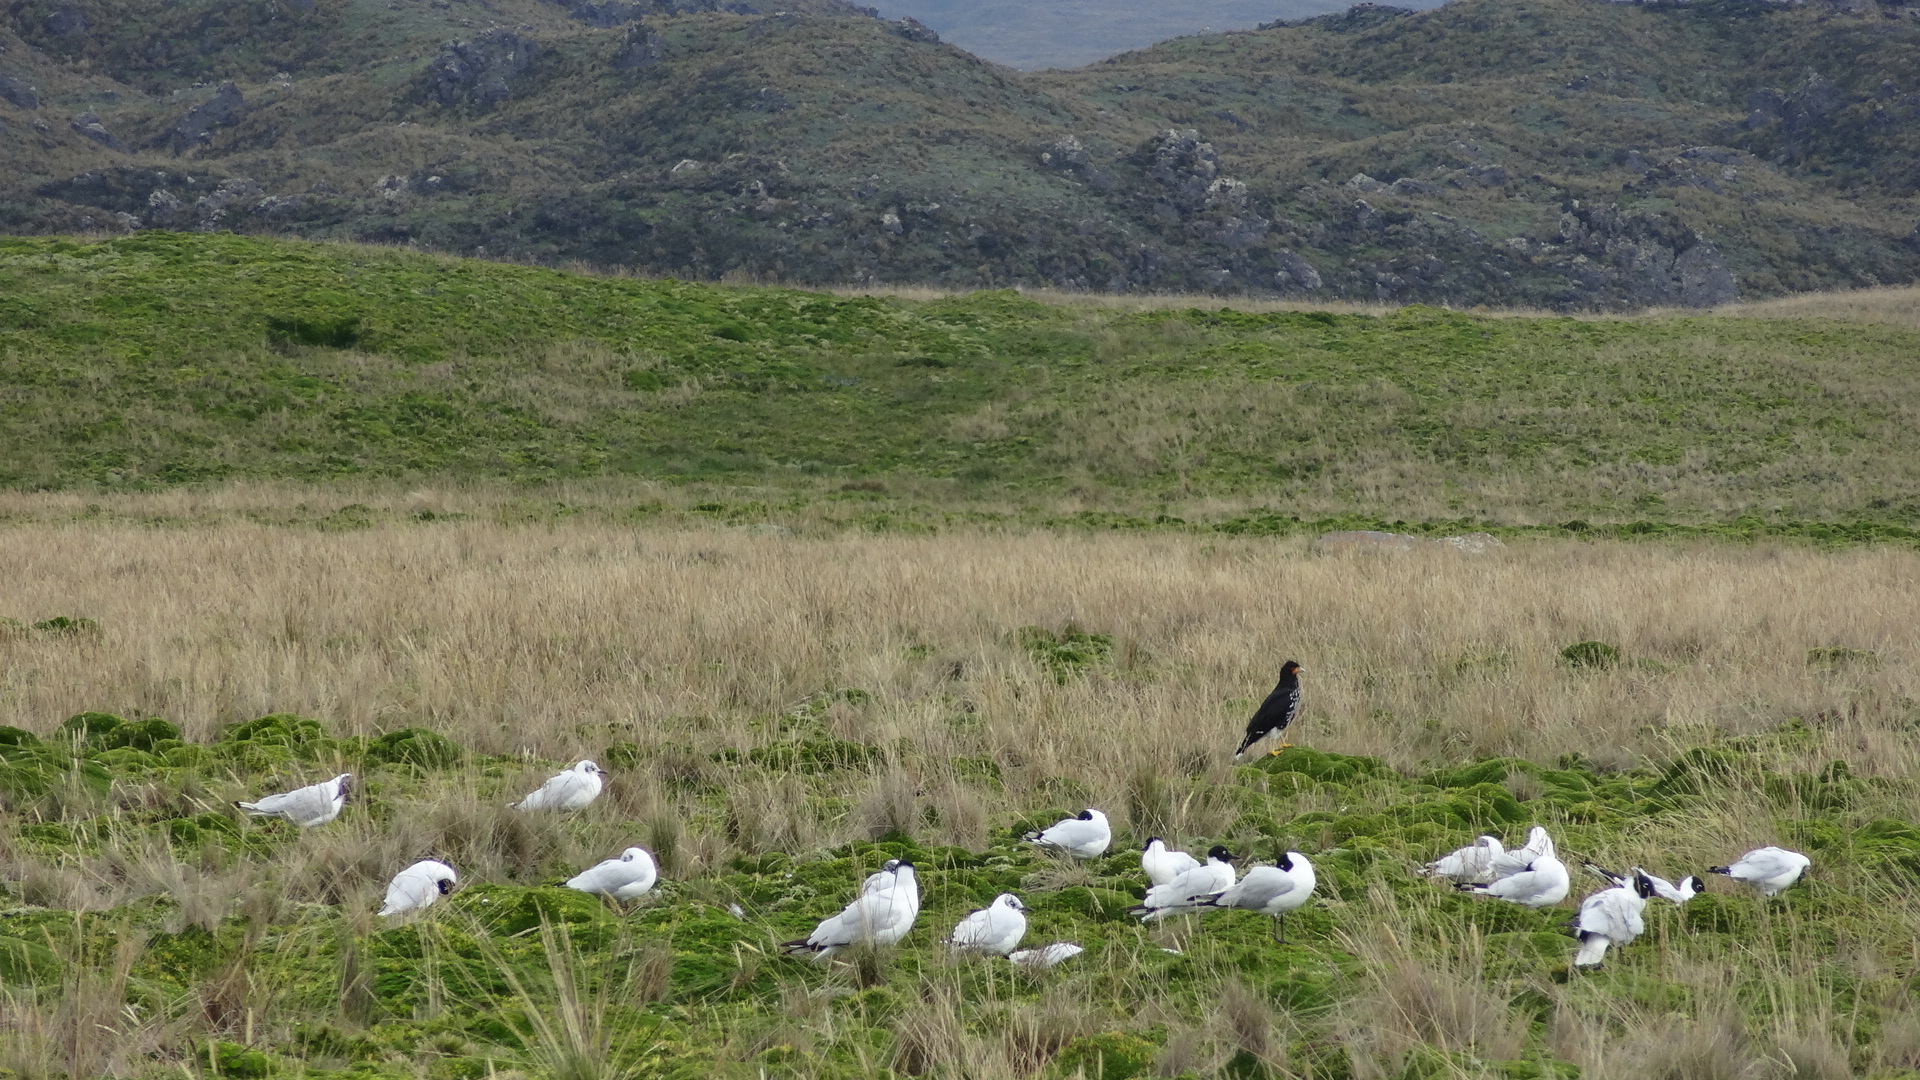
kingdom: Animalia
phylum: Chordata
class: Aves
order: Charadriiformes
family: Laridae
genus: Chroicocephalus
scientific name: Chroicocephalus serranus
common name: Andean gull
